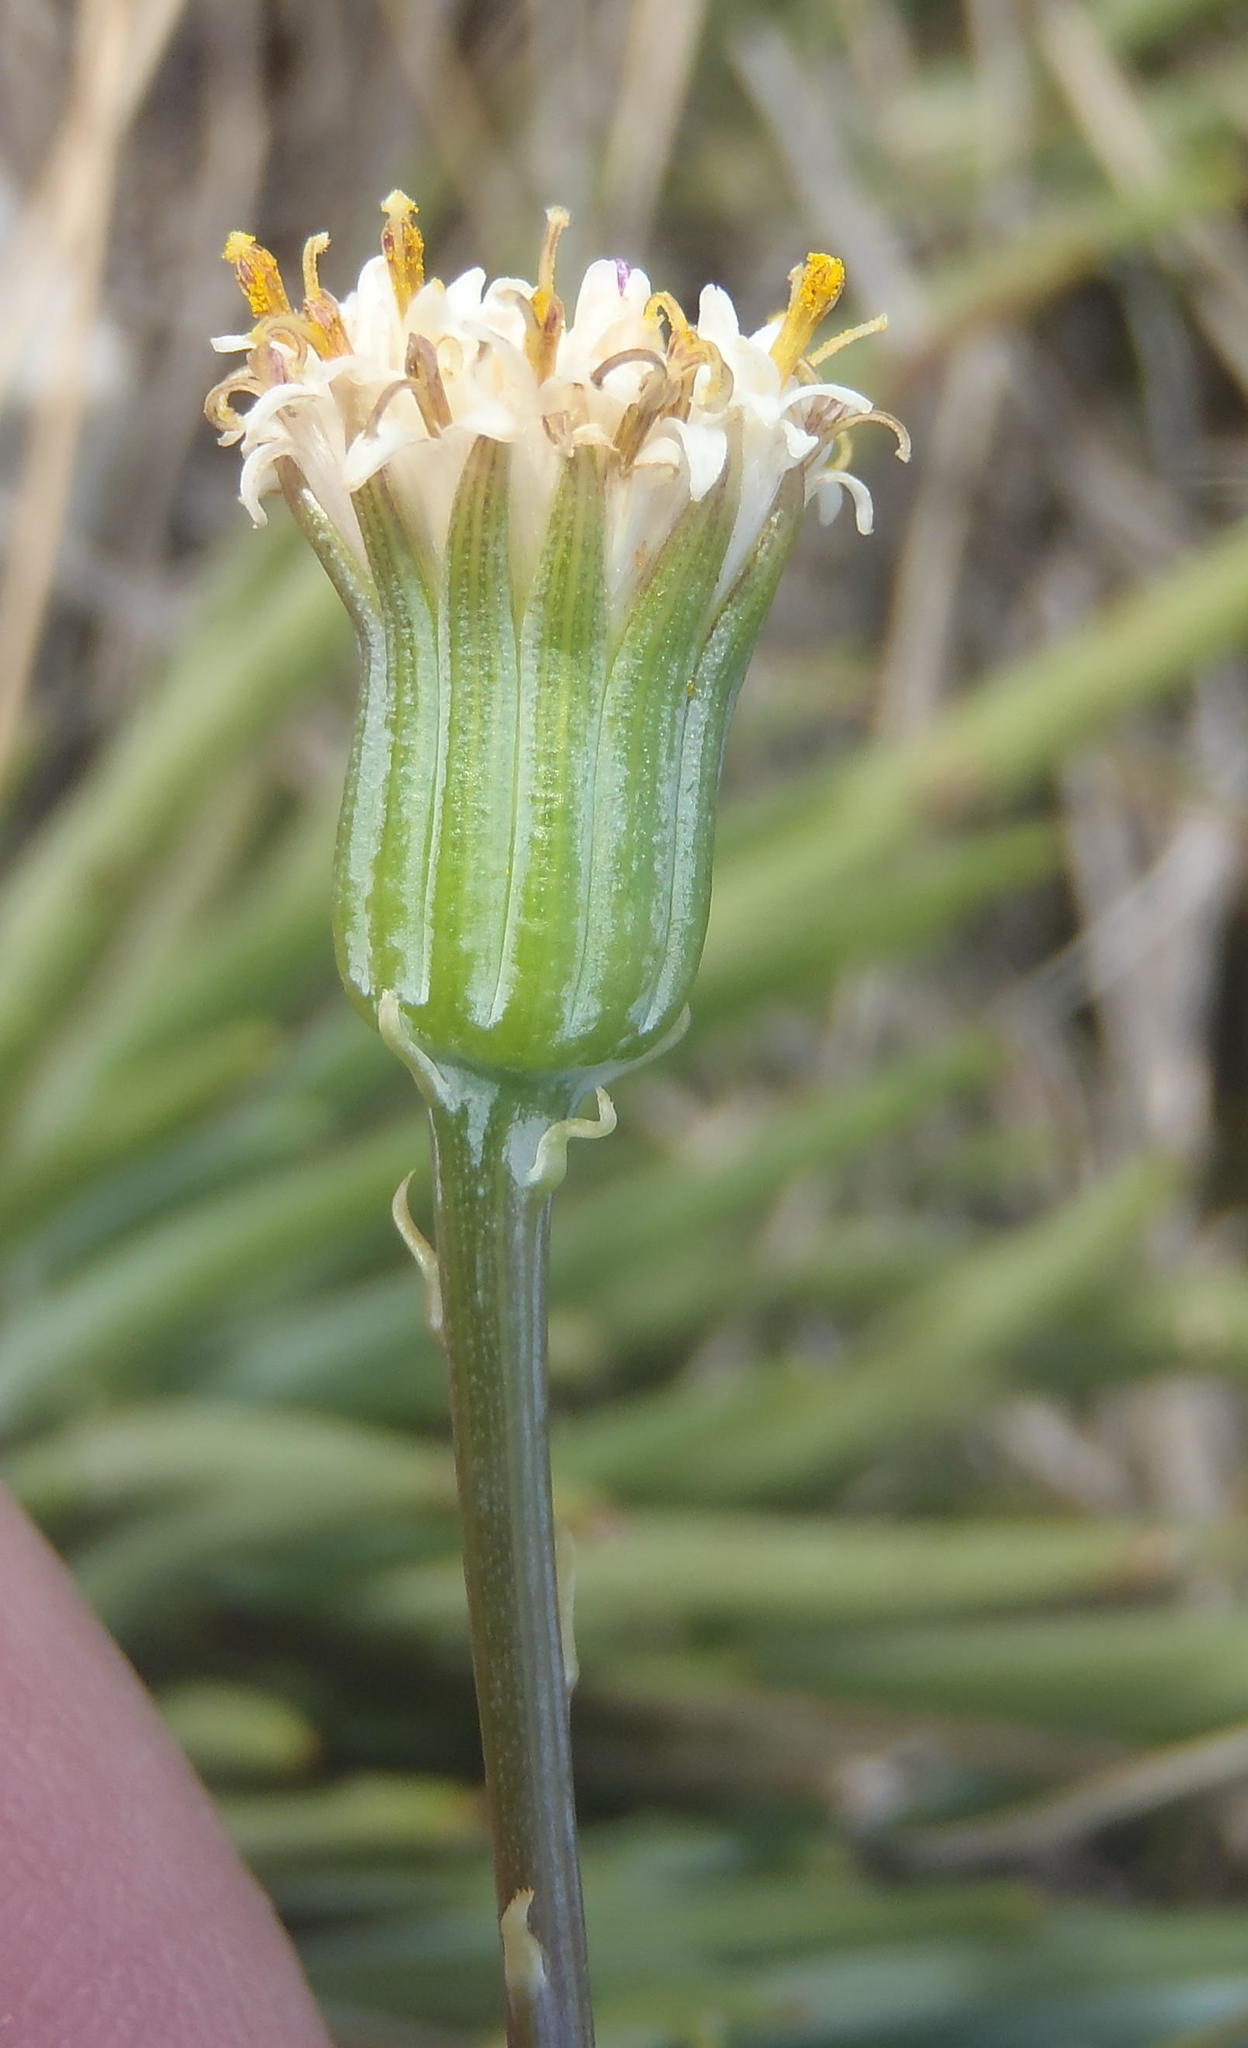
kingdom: Plantae
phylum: Tracheophyta
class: Magnoliopsida
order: Asterales
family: Asteraceae
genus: Curio
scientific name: Curio talinoides
